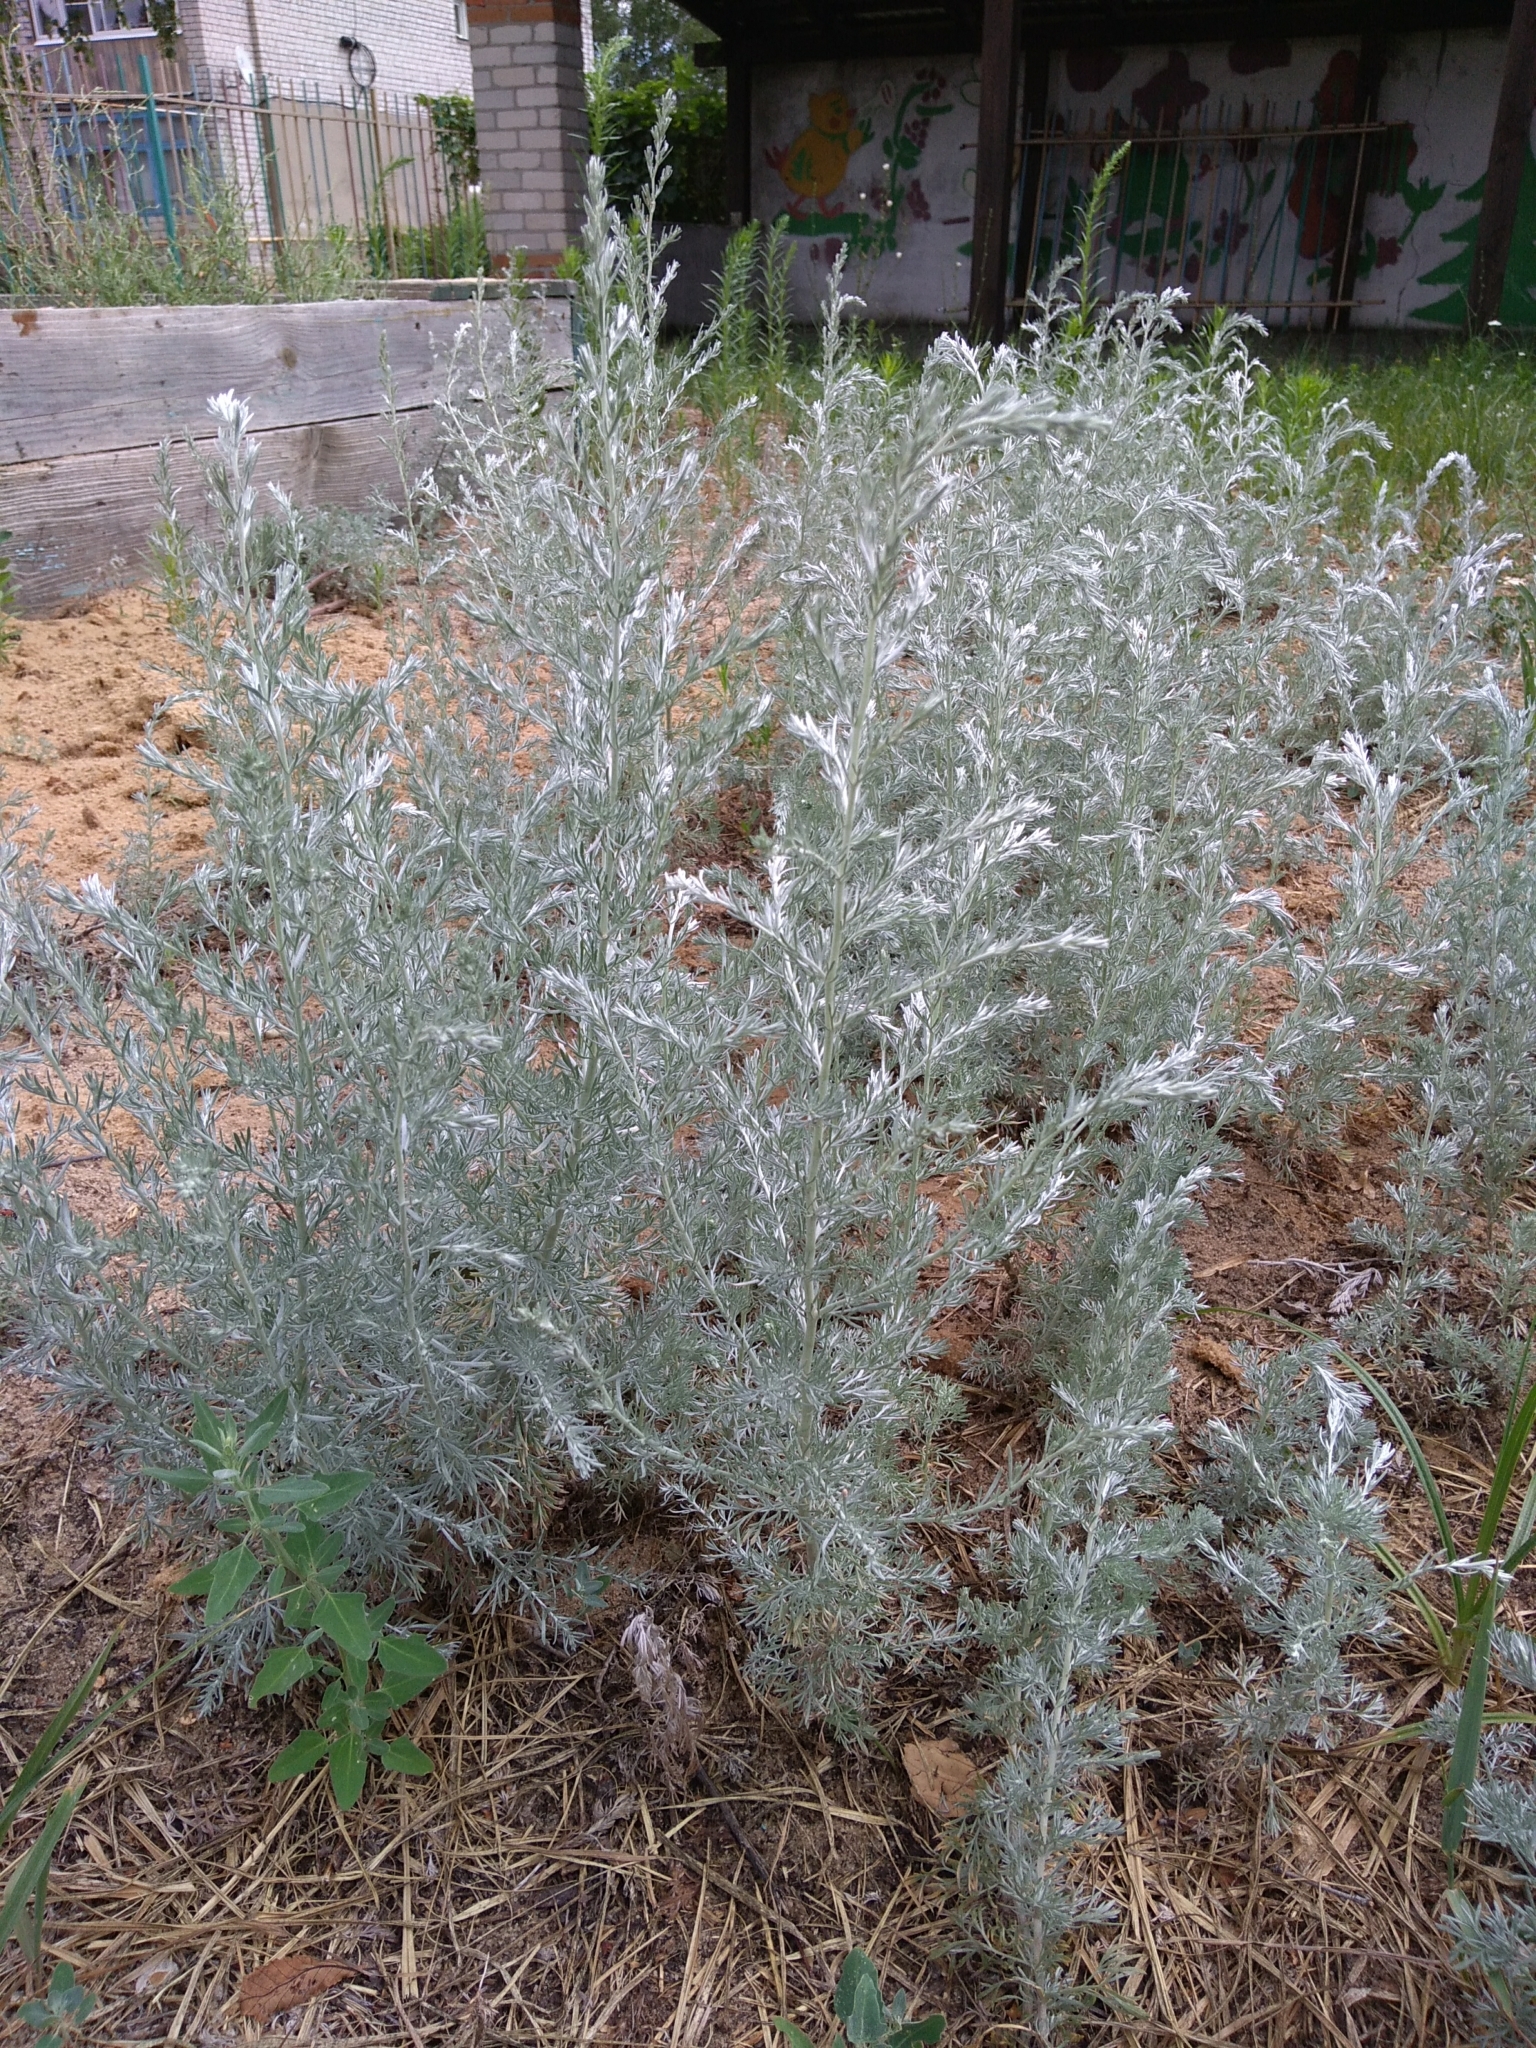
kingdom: Plantae
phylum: Tracheophyta
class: Magnoliopsida
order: Asterales
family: Asteraceae
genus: Artemisia
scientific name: Artemisia austriaca
